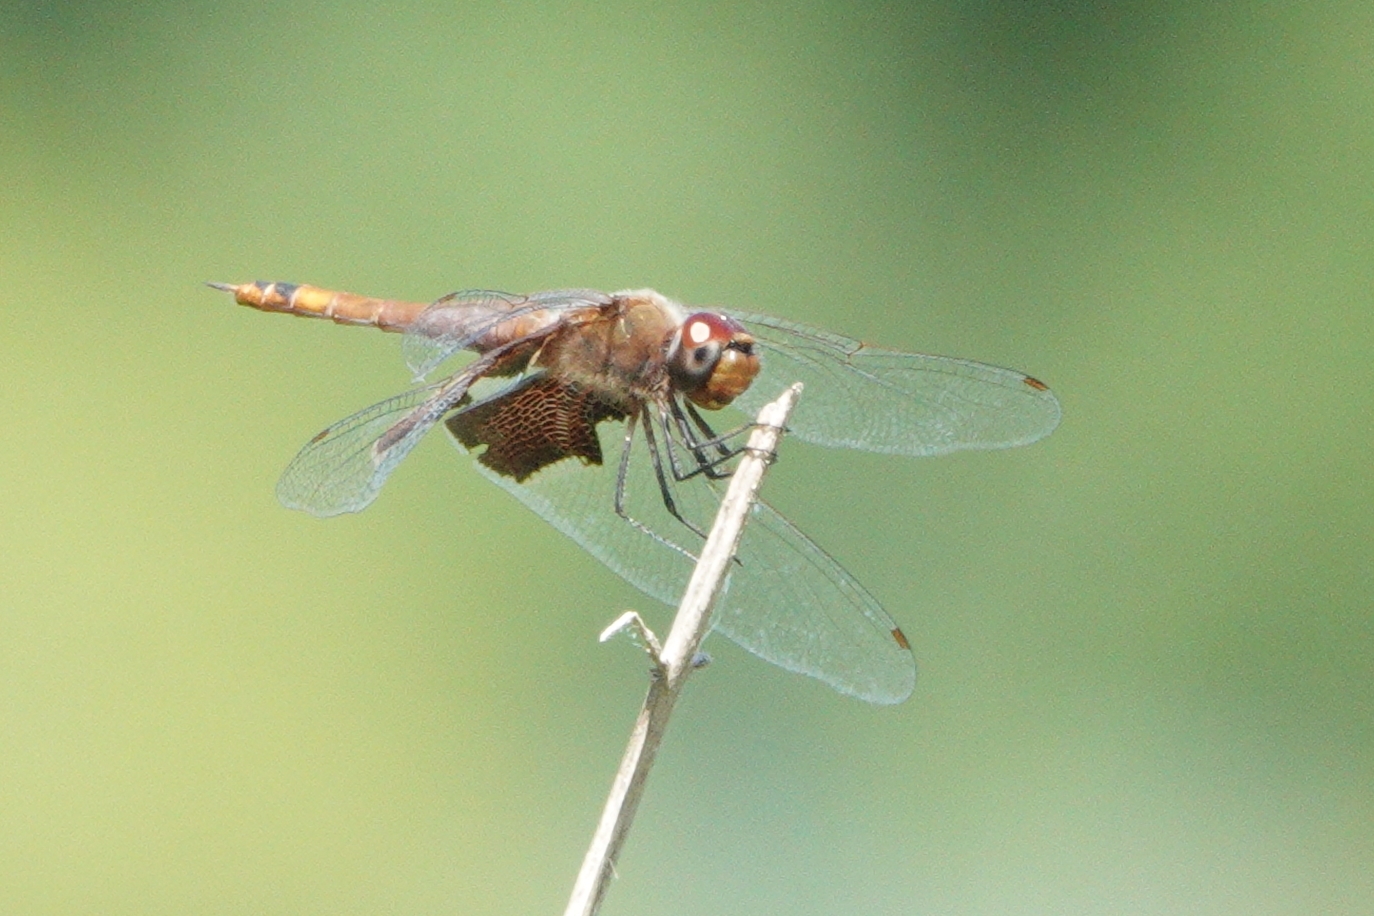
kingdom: Animalia
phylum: Arthropoda
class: Insecta
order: Odonata
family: Libellulidae
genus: Tramea
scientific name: Tramea carolina
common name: Carolina saddlebags
